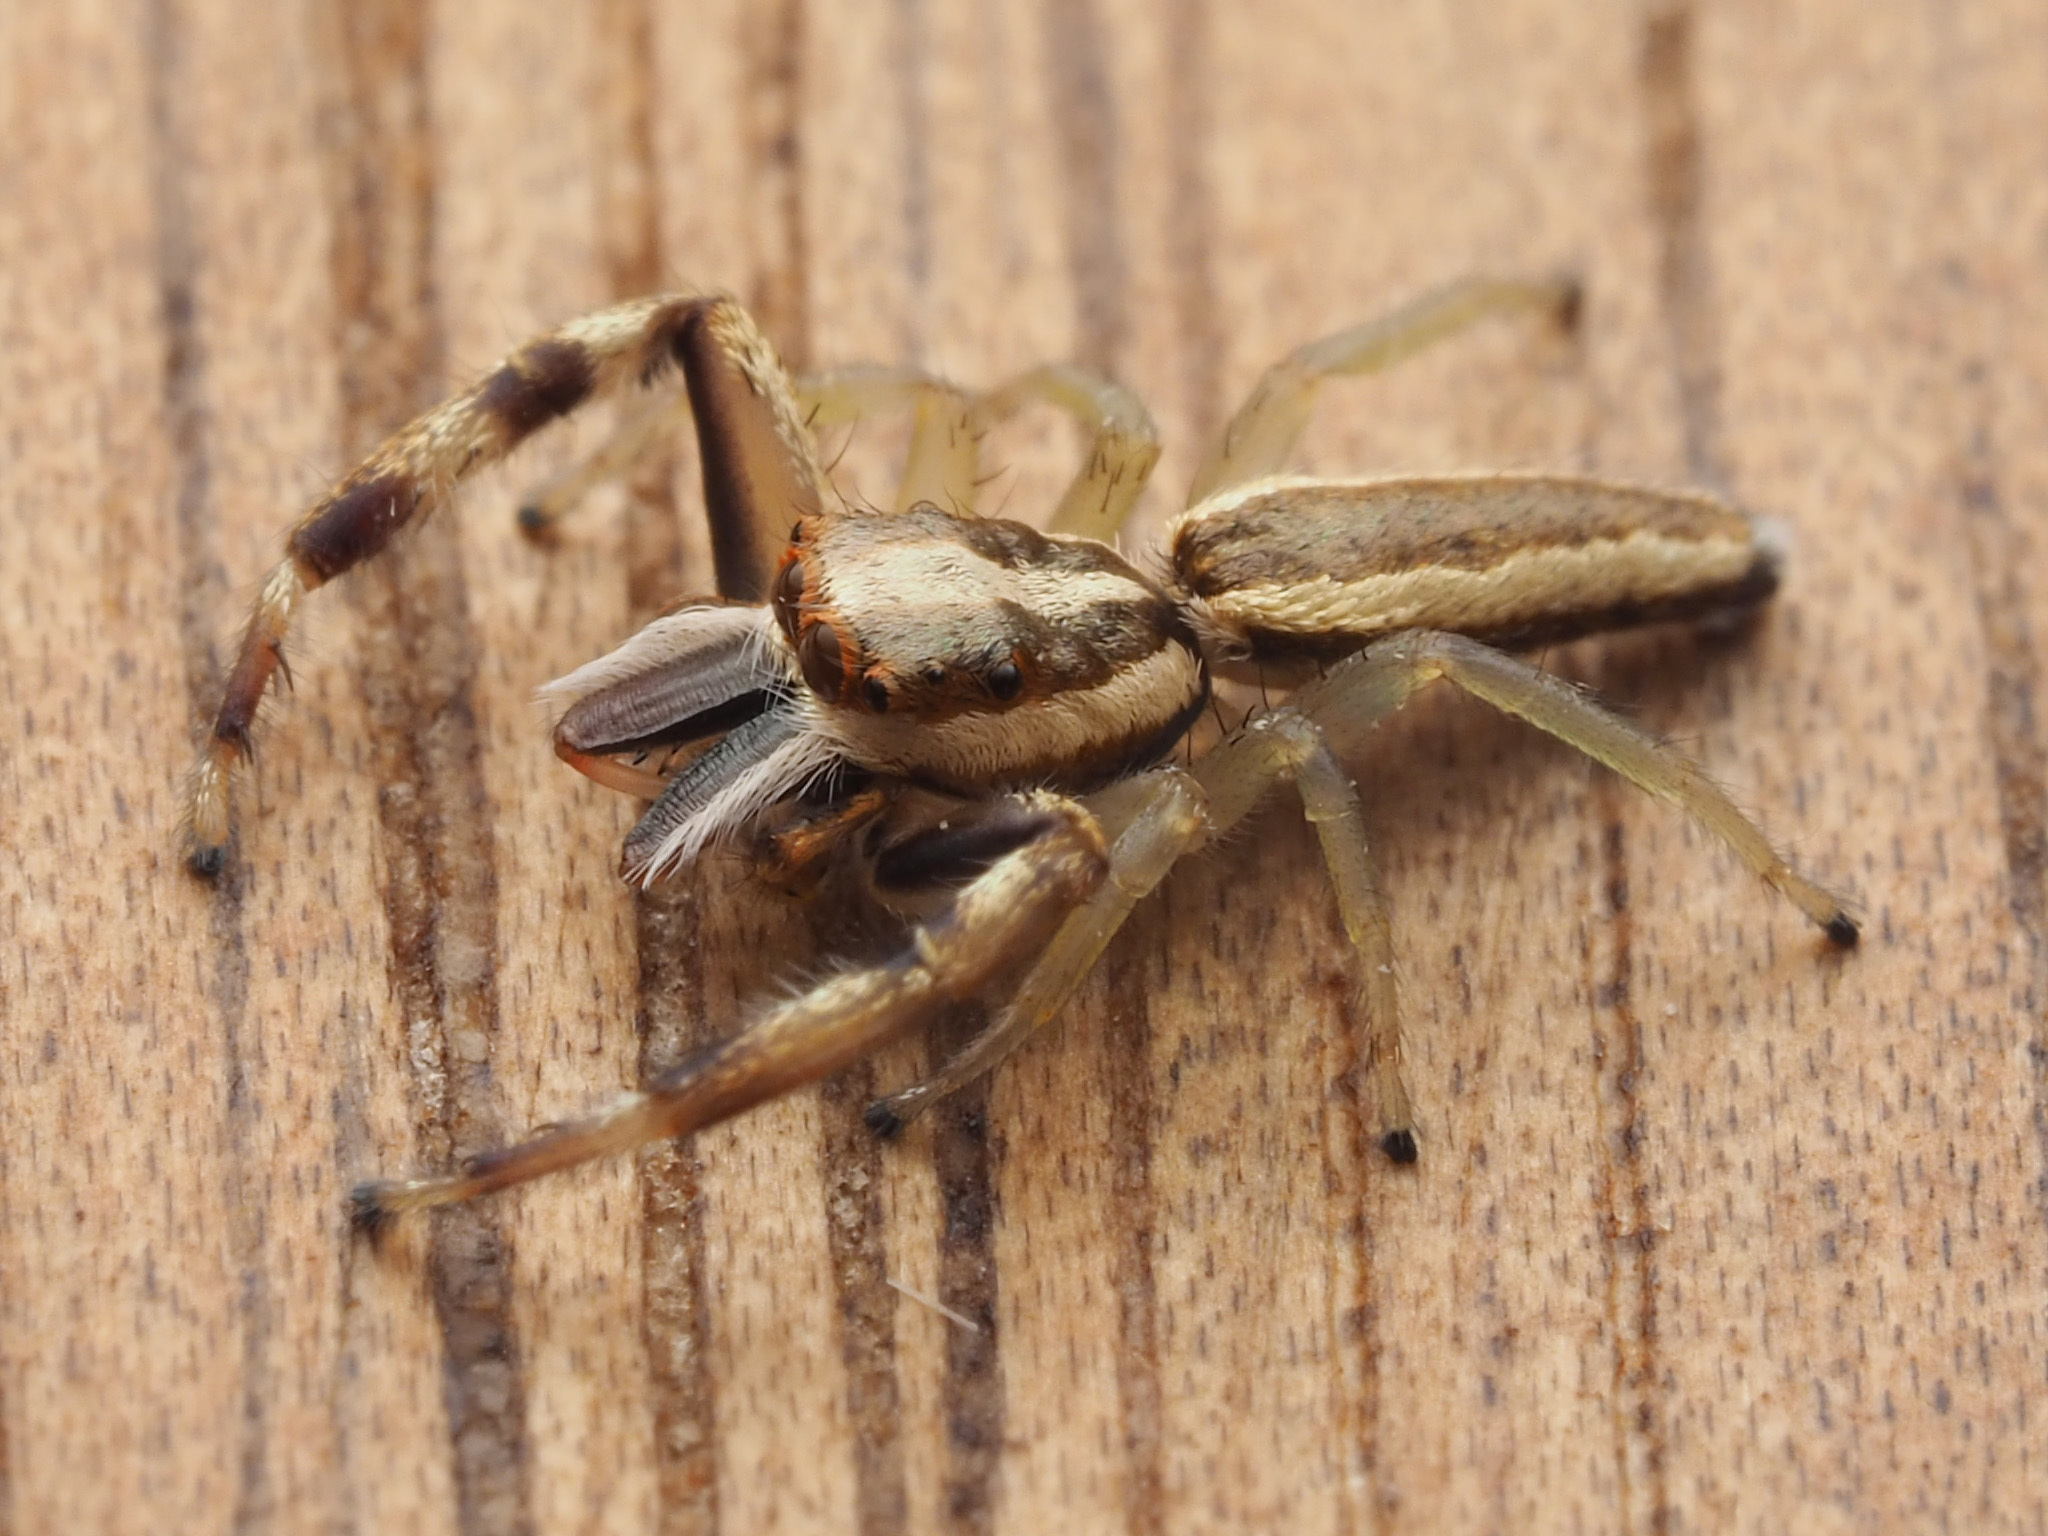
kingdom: Animalia
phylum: Arthropoda
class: Arachnida
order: Araneae
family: Salticidae
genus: Hentzia
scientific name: Hentzia grenada
